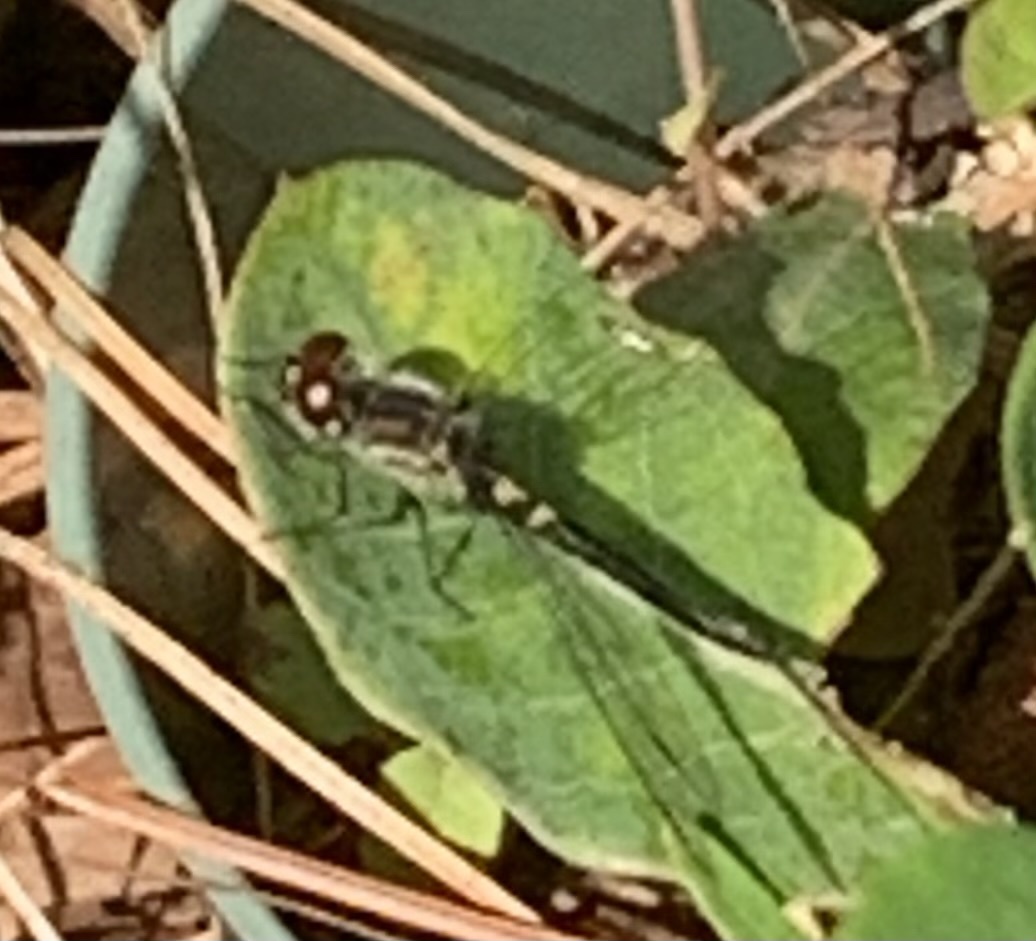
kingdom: Animalia
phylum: Arthropoda
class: Insecta
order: Odonata
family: Libellulidae
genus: Celithemis
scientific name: Celithemis verna
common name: Double-ringed pennant
